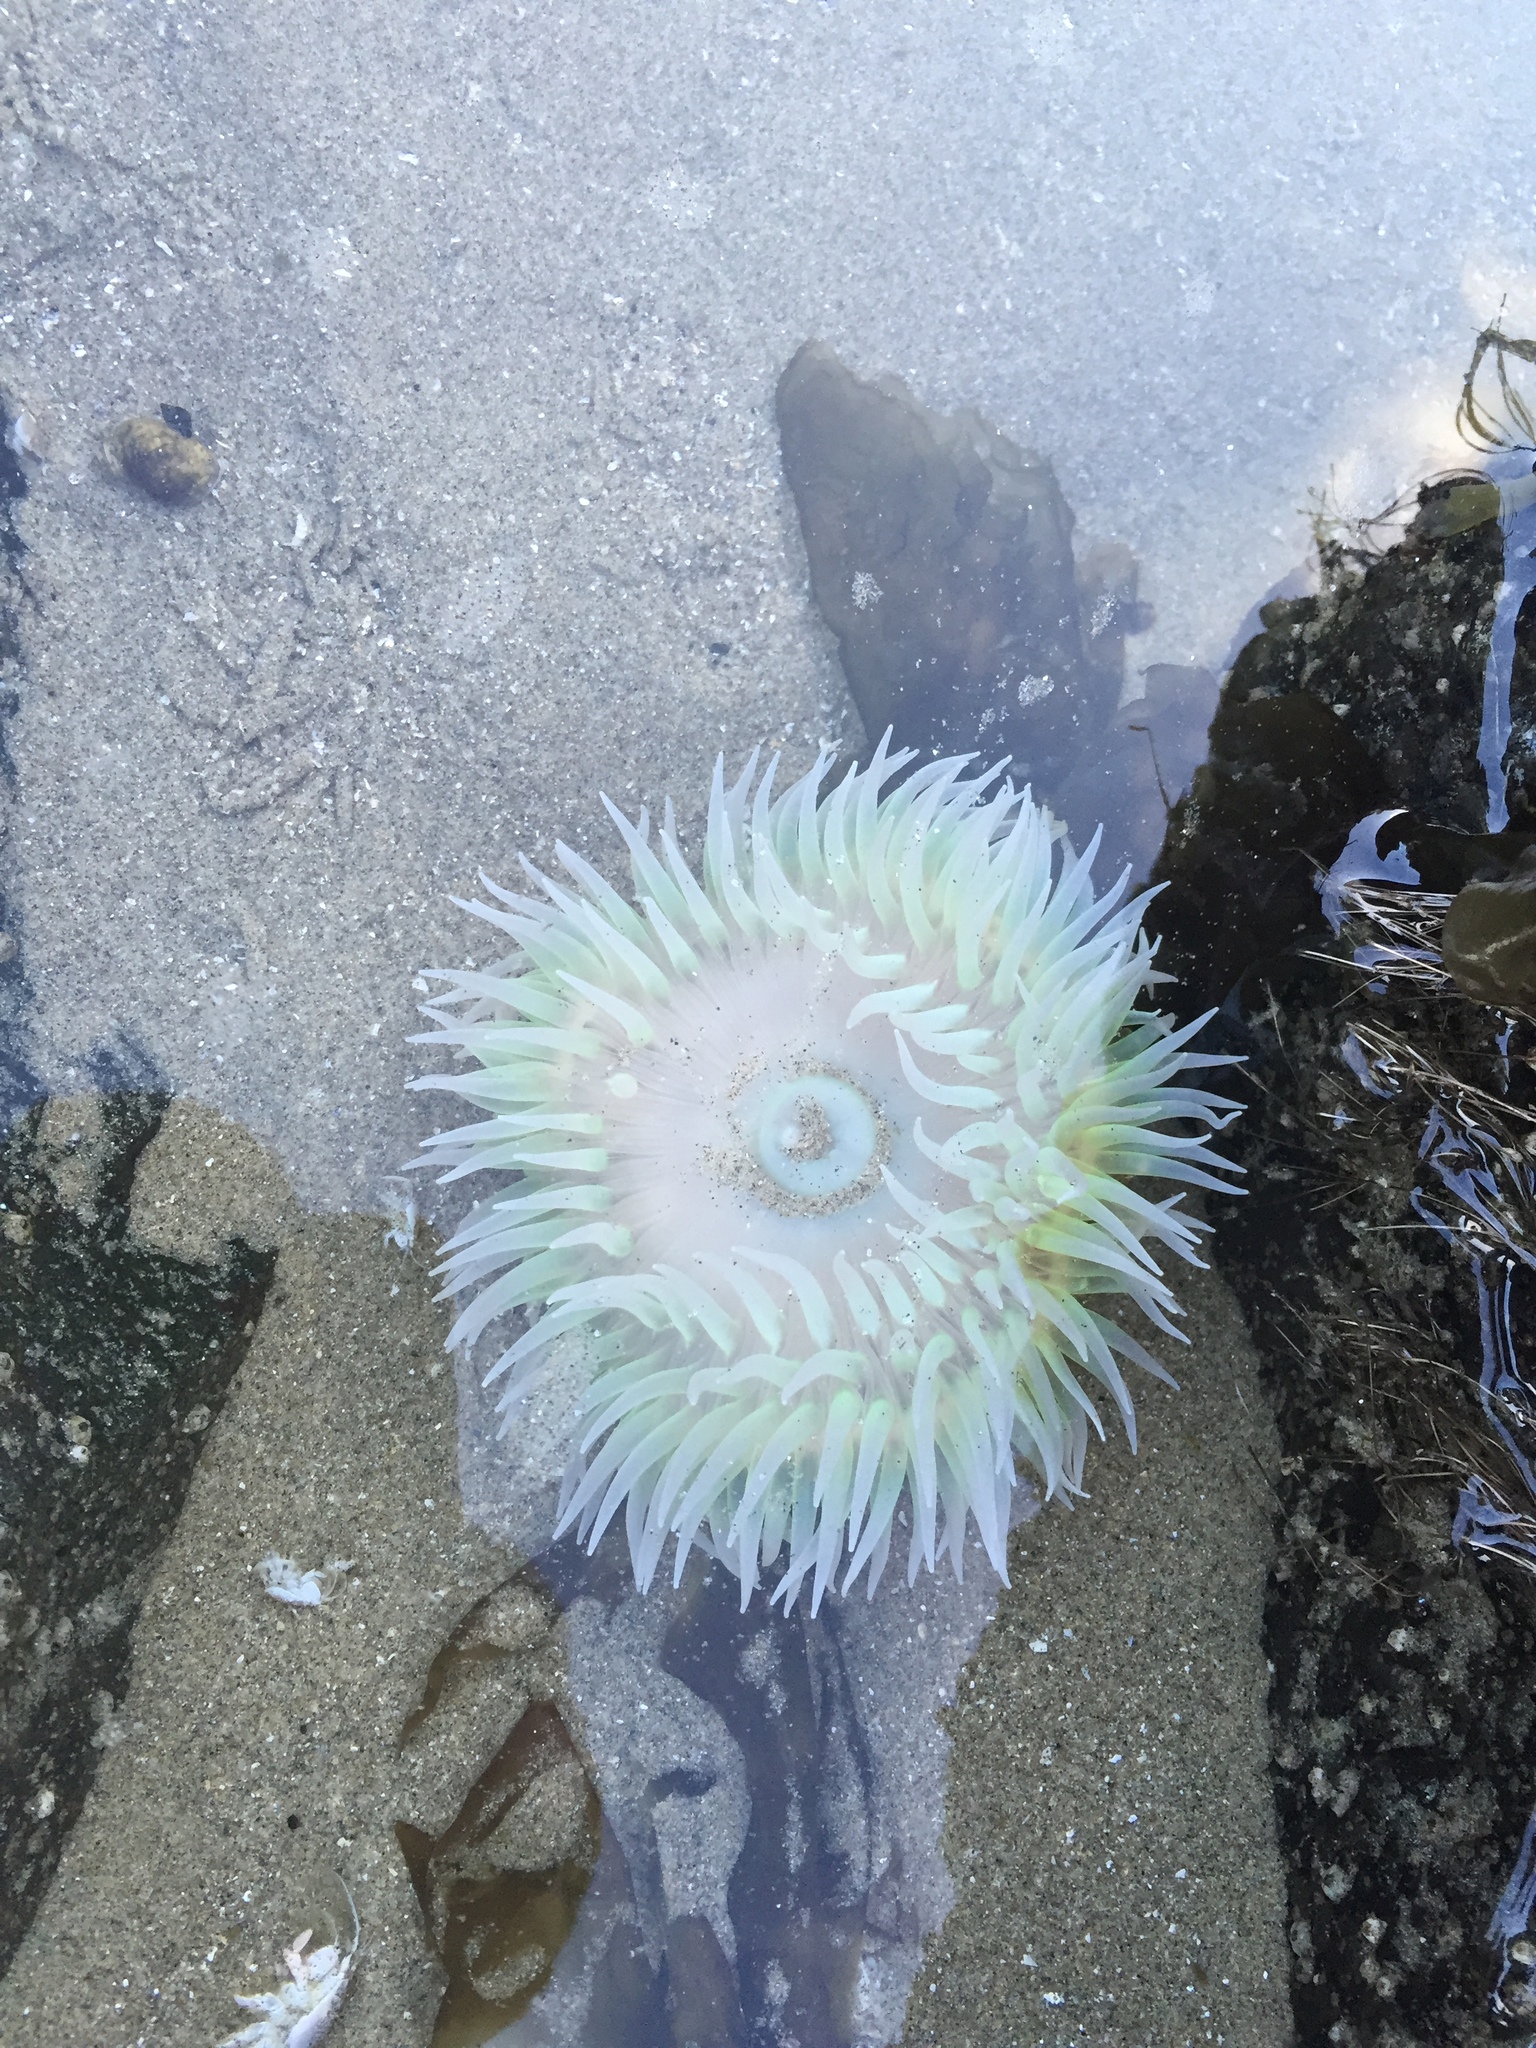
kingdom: Animalia
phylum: Cnidaria
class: Anthozoa
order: Actiniaria
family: Actiniidae
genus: Anthopleura
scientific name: Anthopleura xanthogrammica
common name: Giant green anemone
